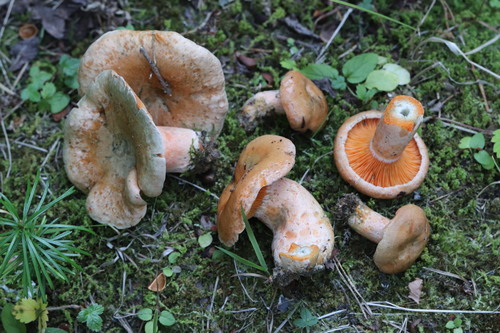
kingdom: Fungi
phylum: Basidiomycota
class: Agaricomycetes
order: Russulales
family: Russulaceae
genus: Lactarius
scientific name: Lactarius deliciosus
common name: Saffron milk-cap
